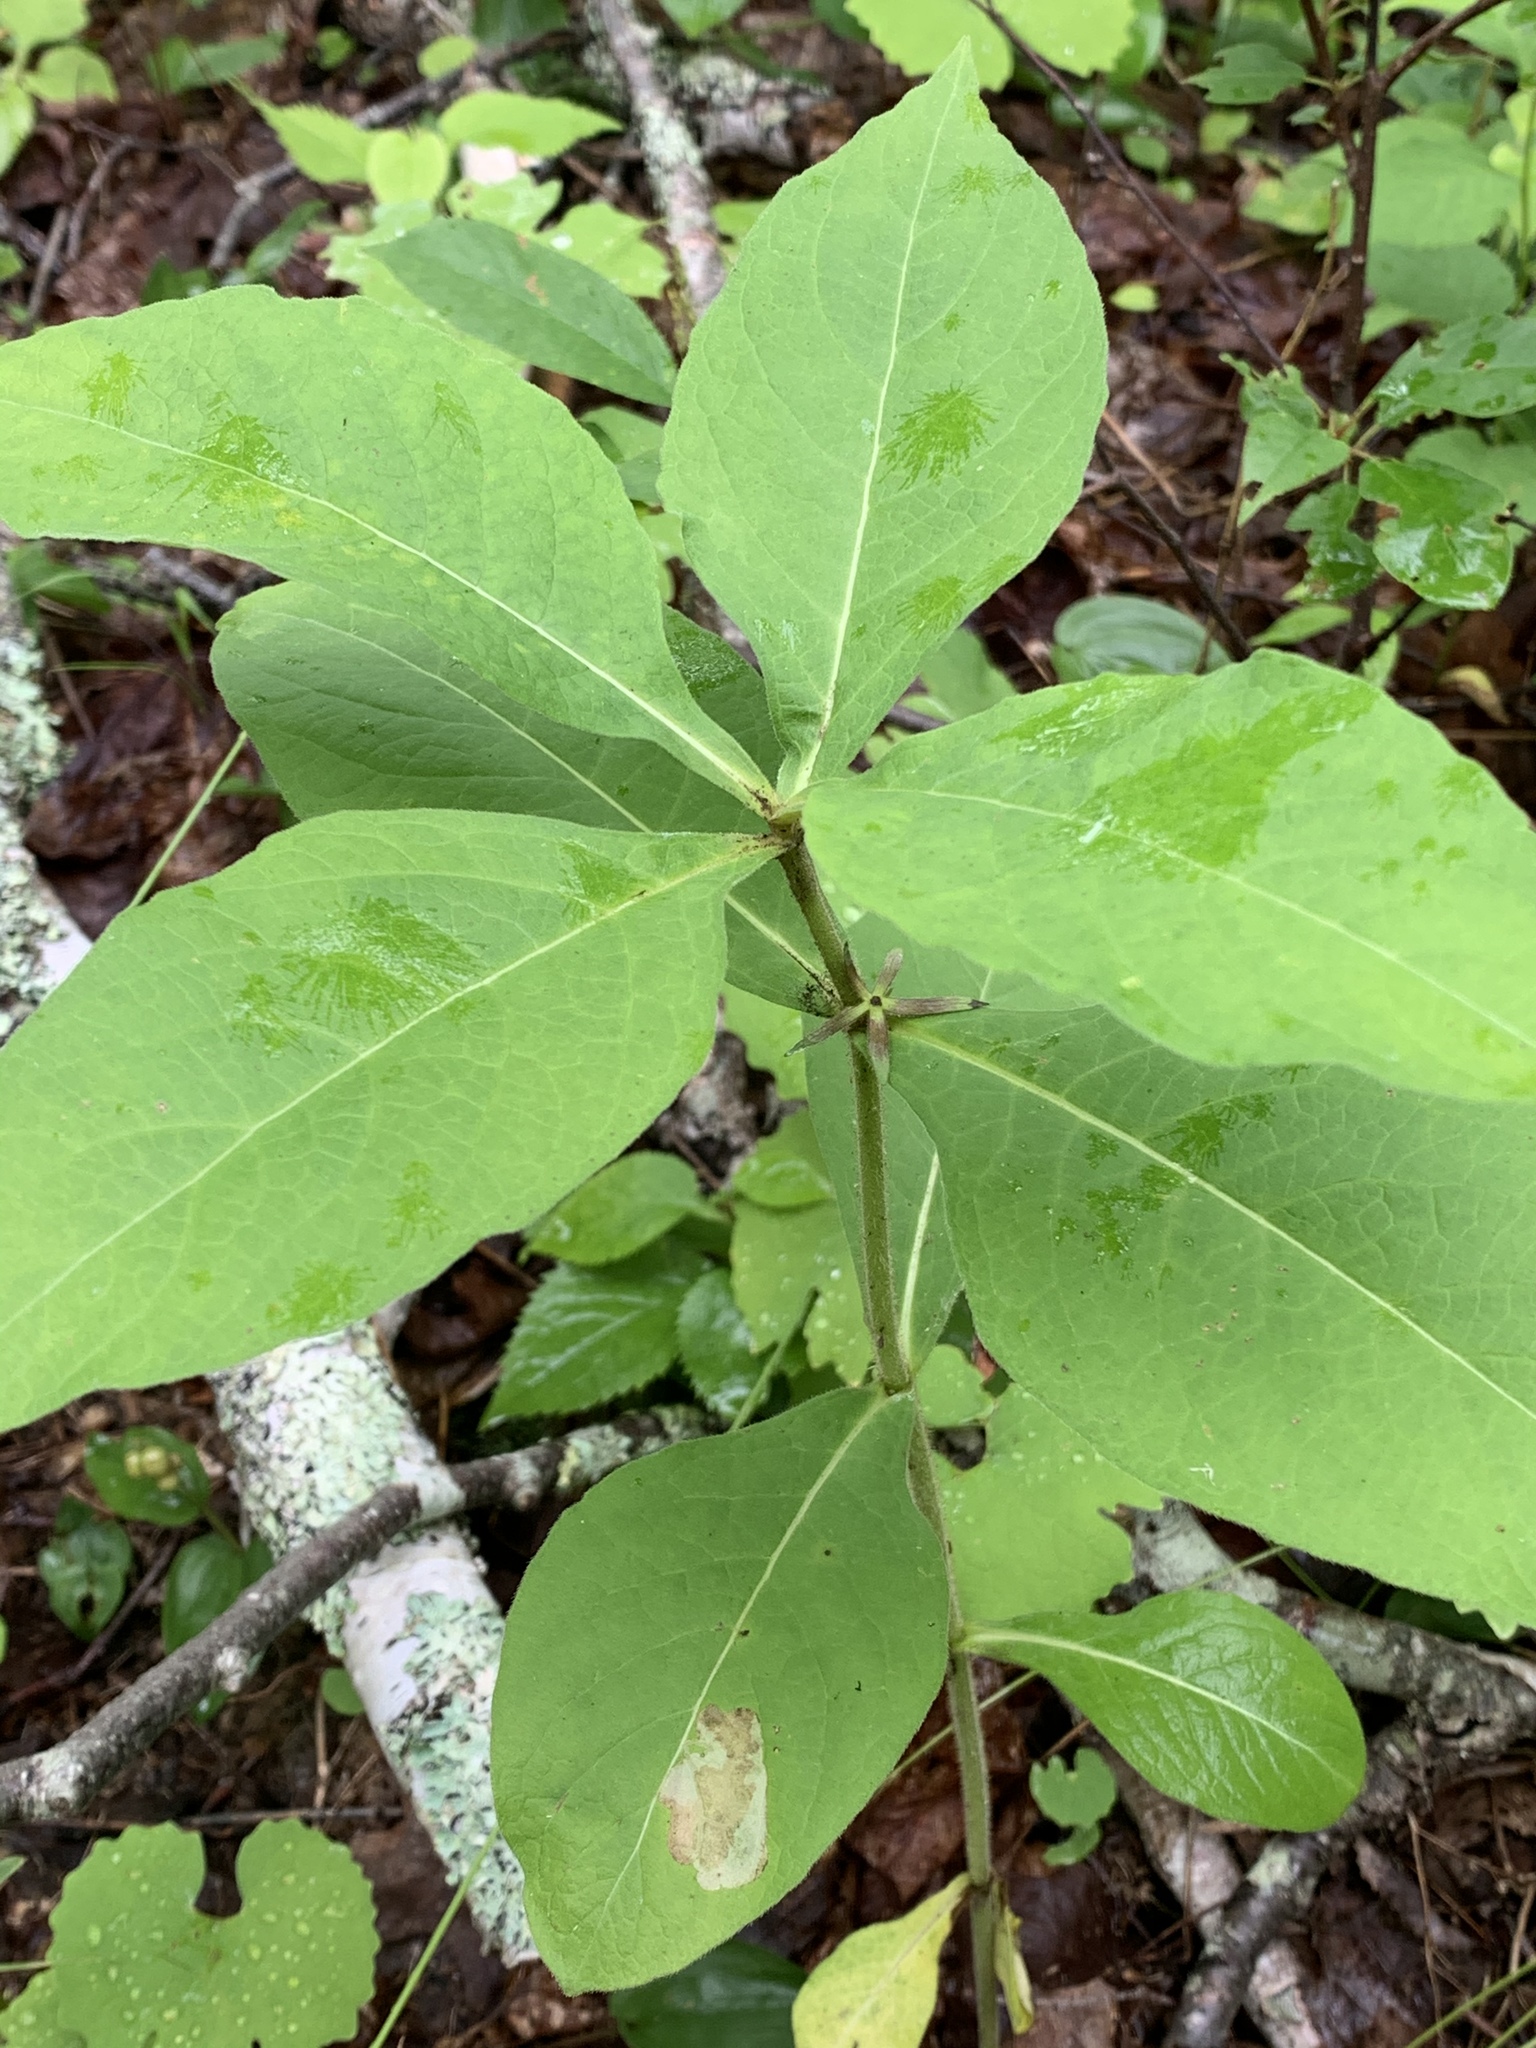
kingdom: Plantae
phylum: Tracheophyta
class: Magnoliopsida
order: Dipsacales
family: Caprifoliaceae
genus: Triosteum
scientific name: Triosteum aurantiacum
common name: Coffee tinker's-weed
